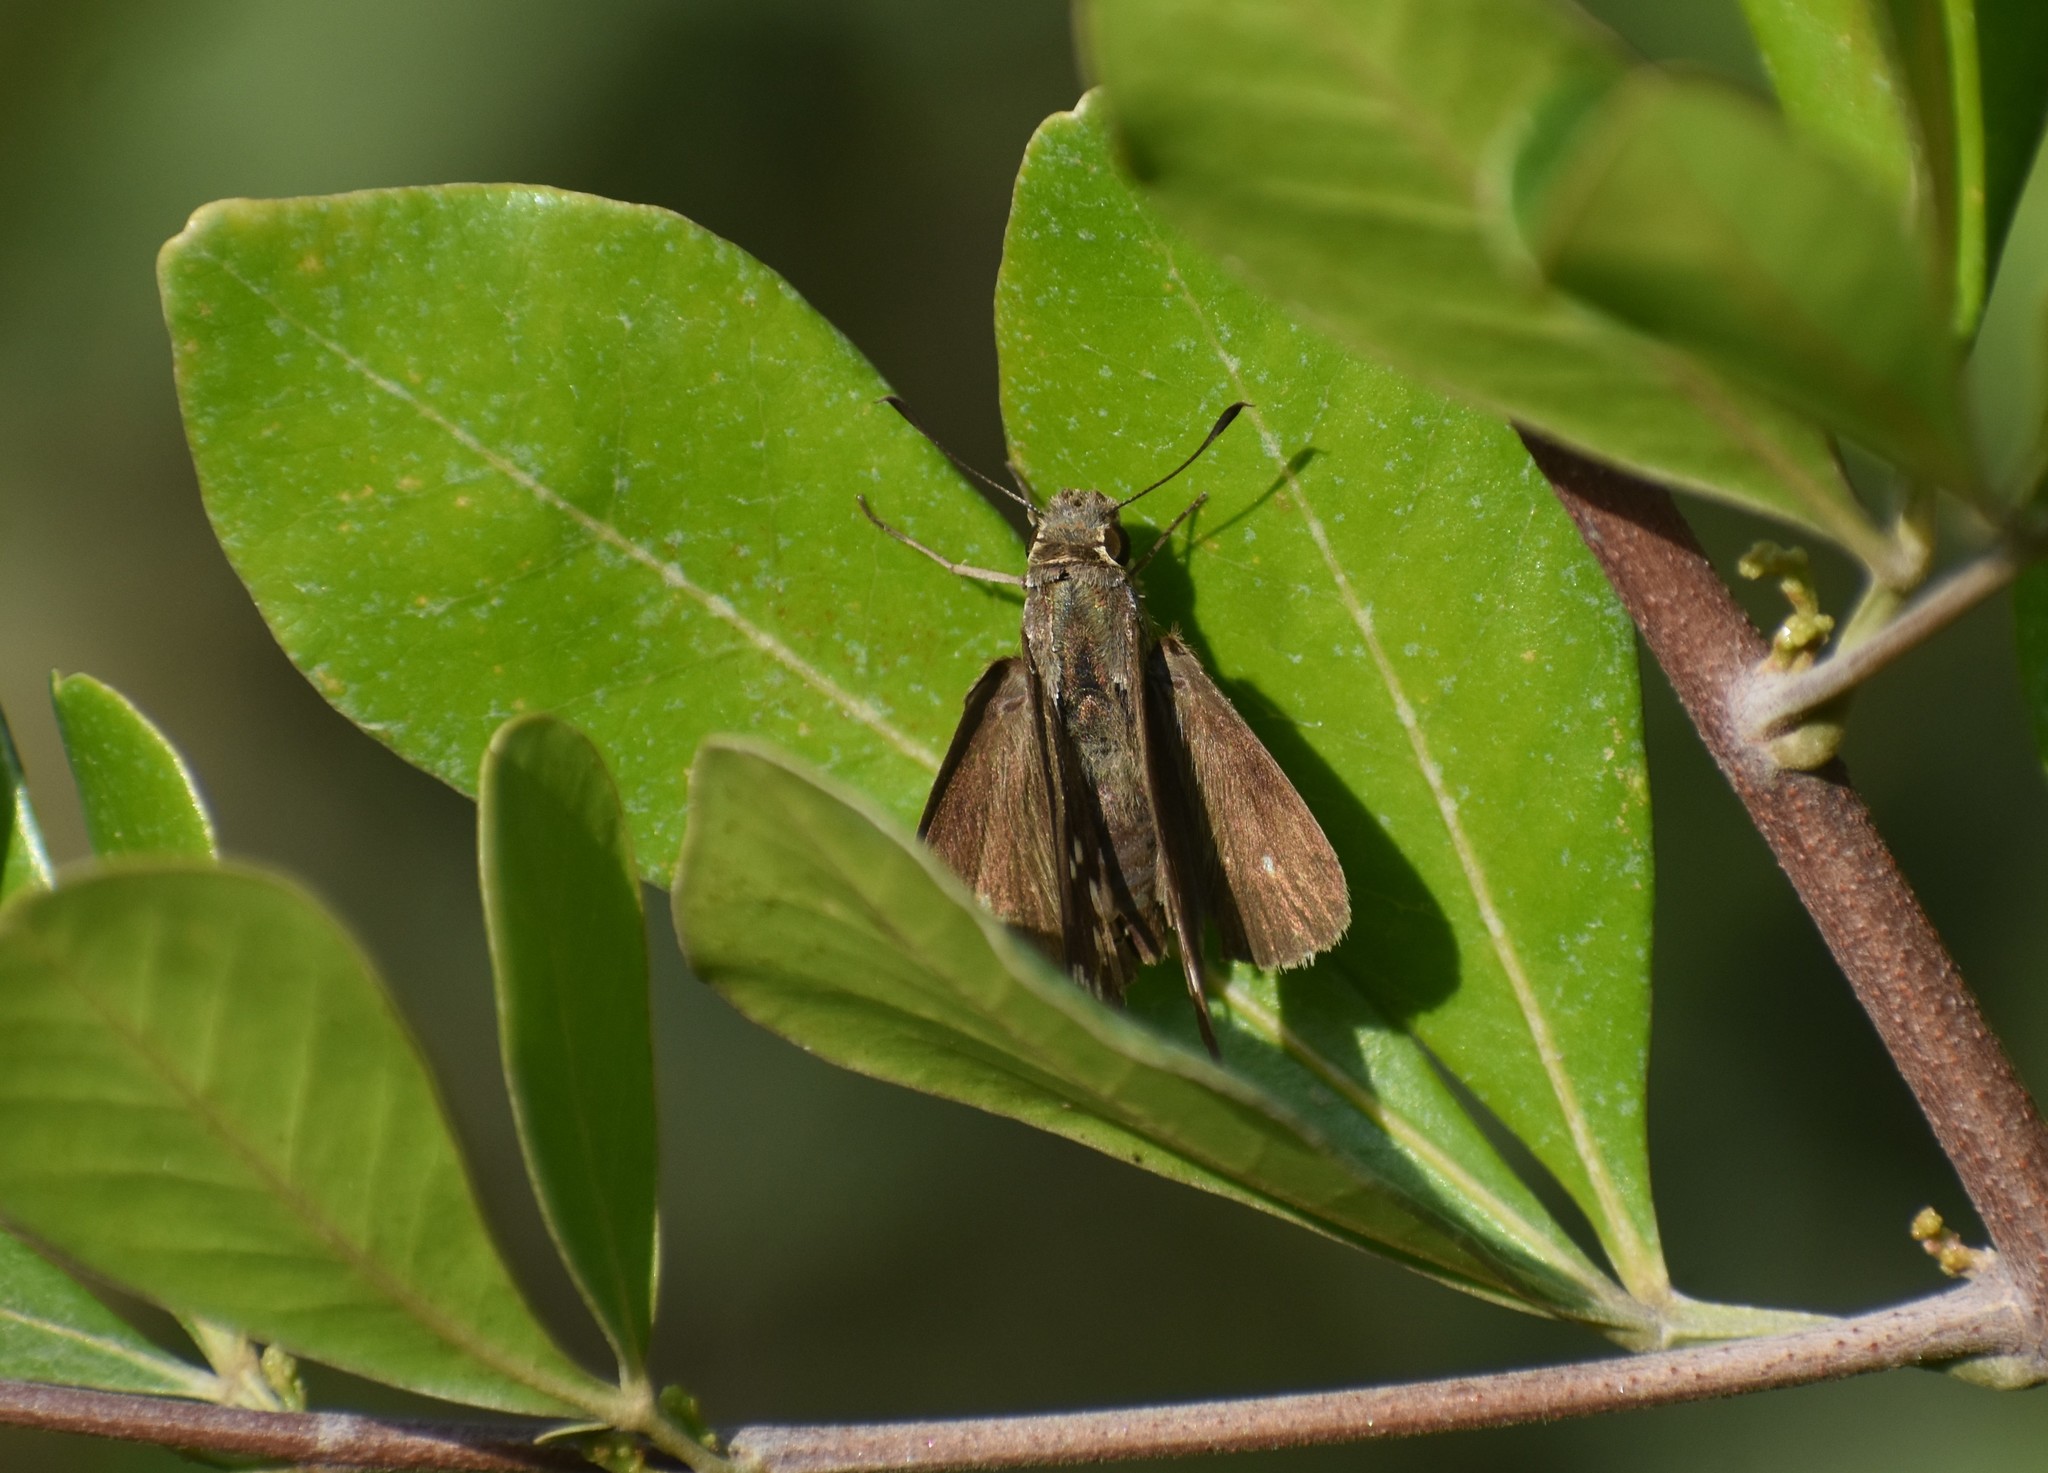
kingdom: Animalia
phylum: Arthropoda
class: Insecta
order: Hymenoptera
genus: Afrogenes
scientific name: Afrogenes
